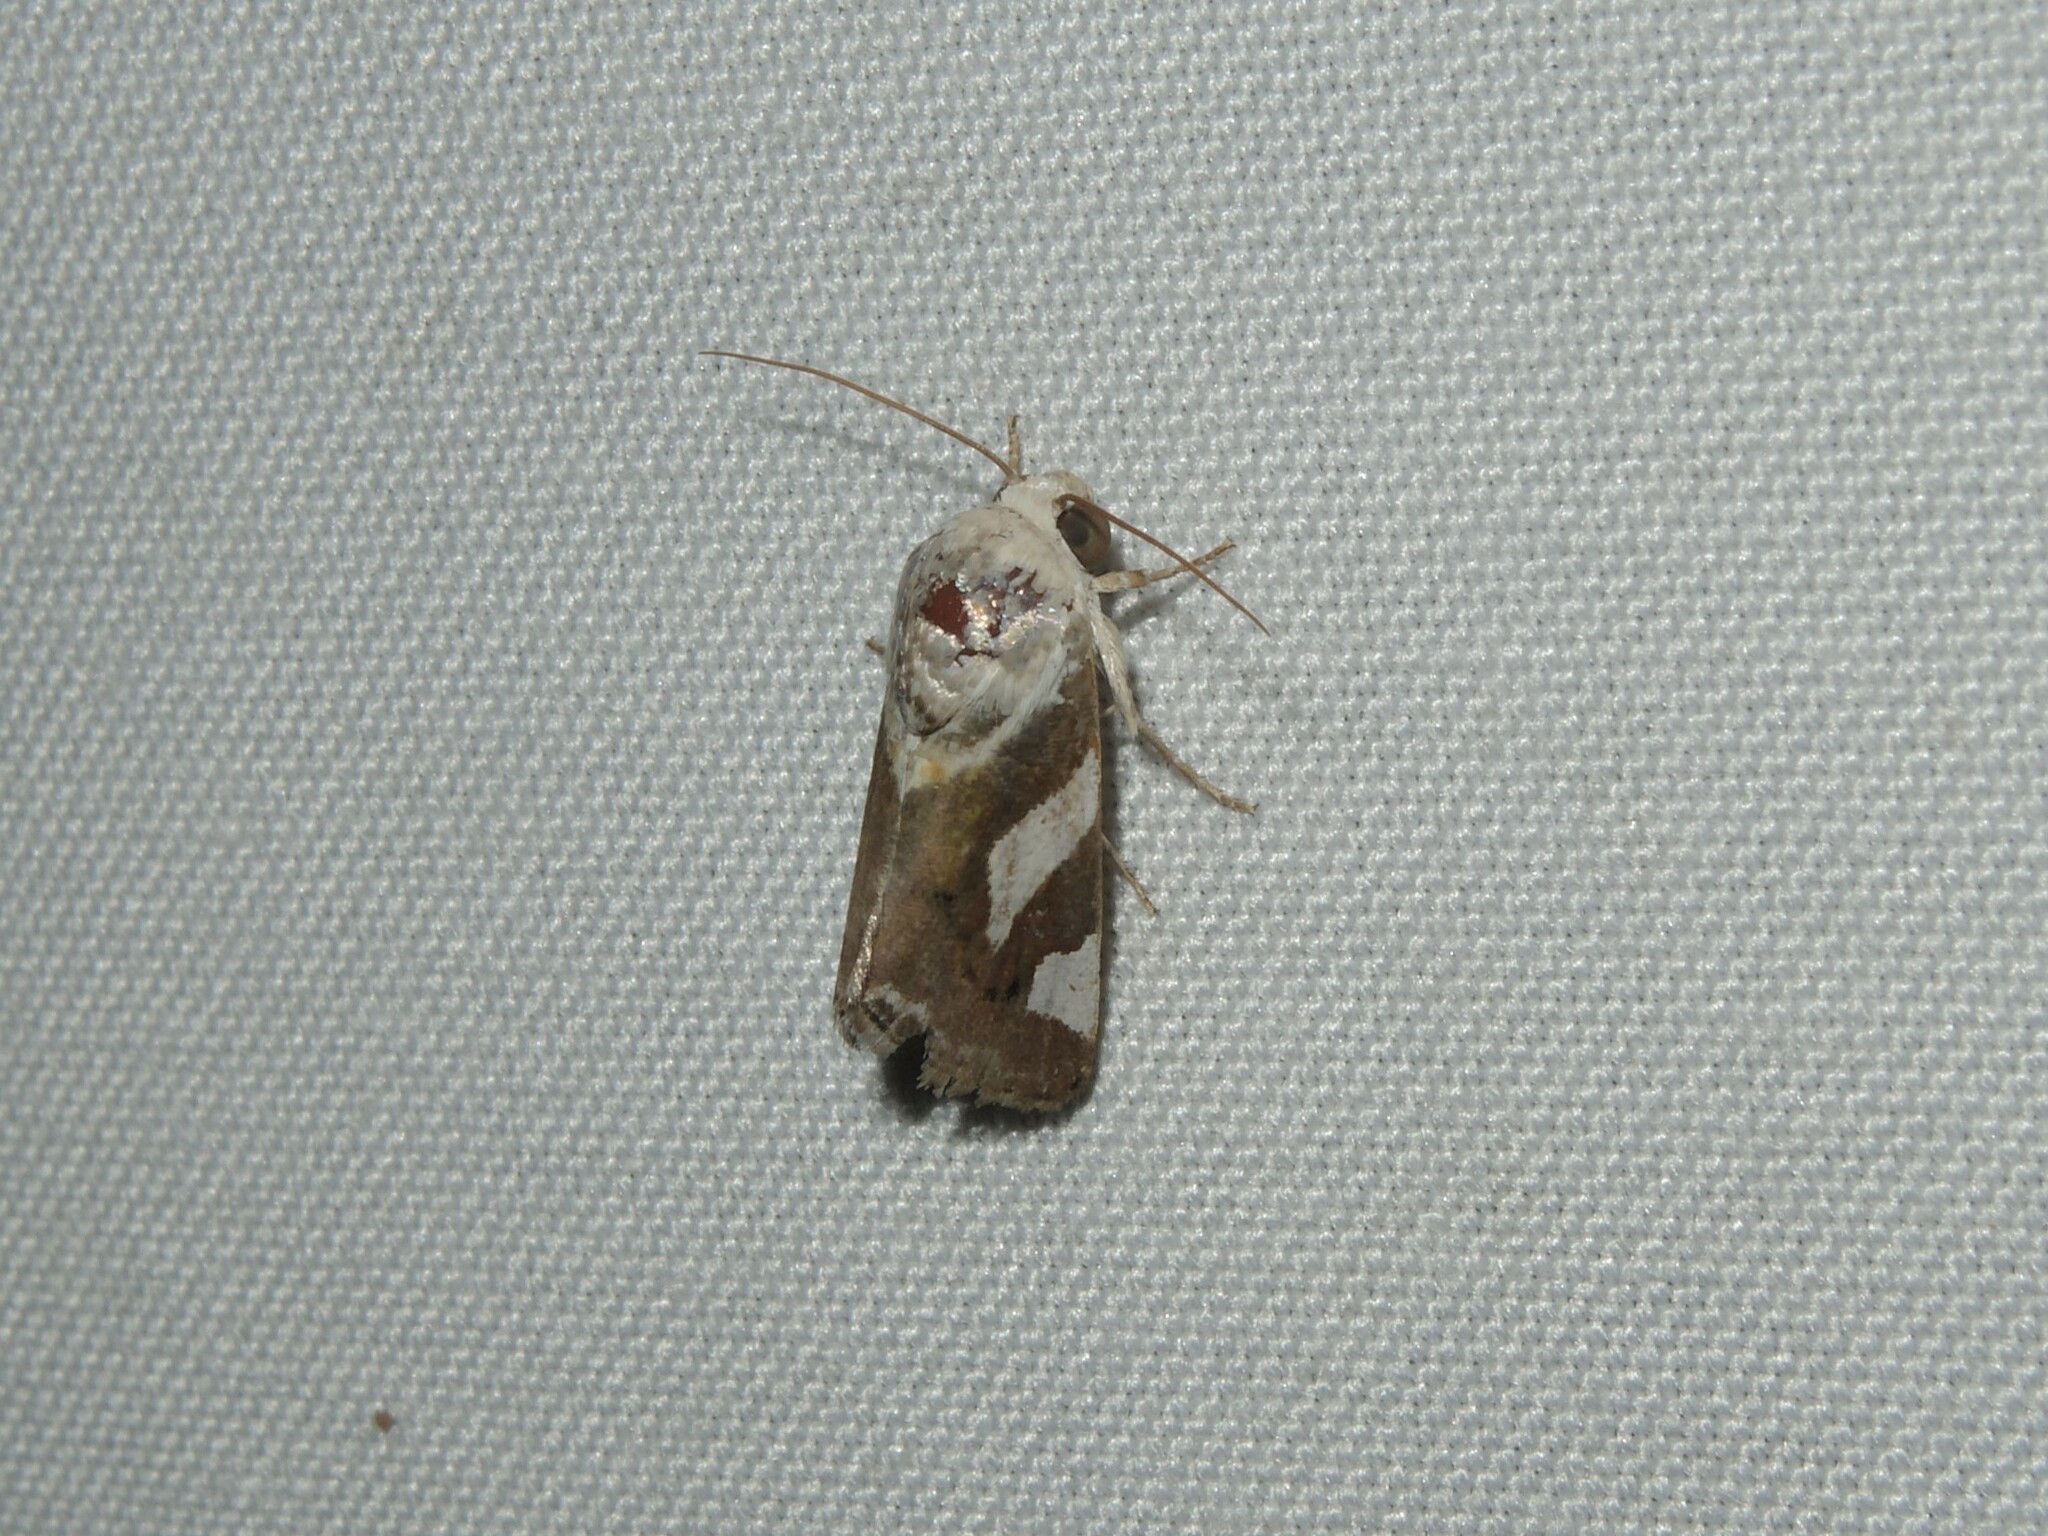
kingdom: Animalia
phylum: Arthropoda
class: Insecta
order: Lepidoptera
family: Noctuidae
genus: Acontia
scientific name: Acontia catenula
